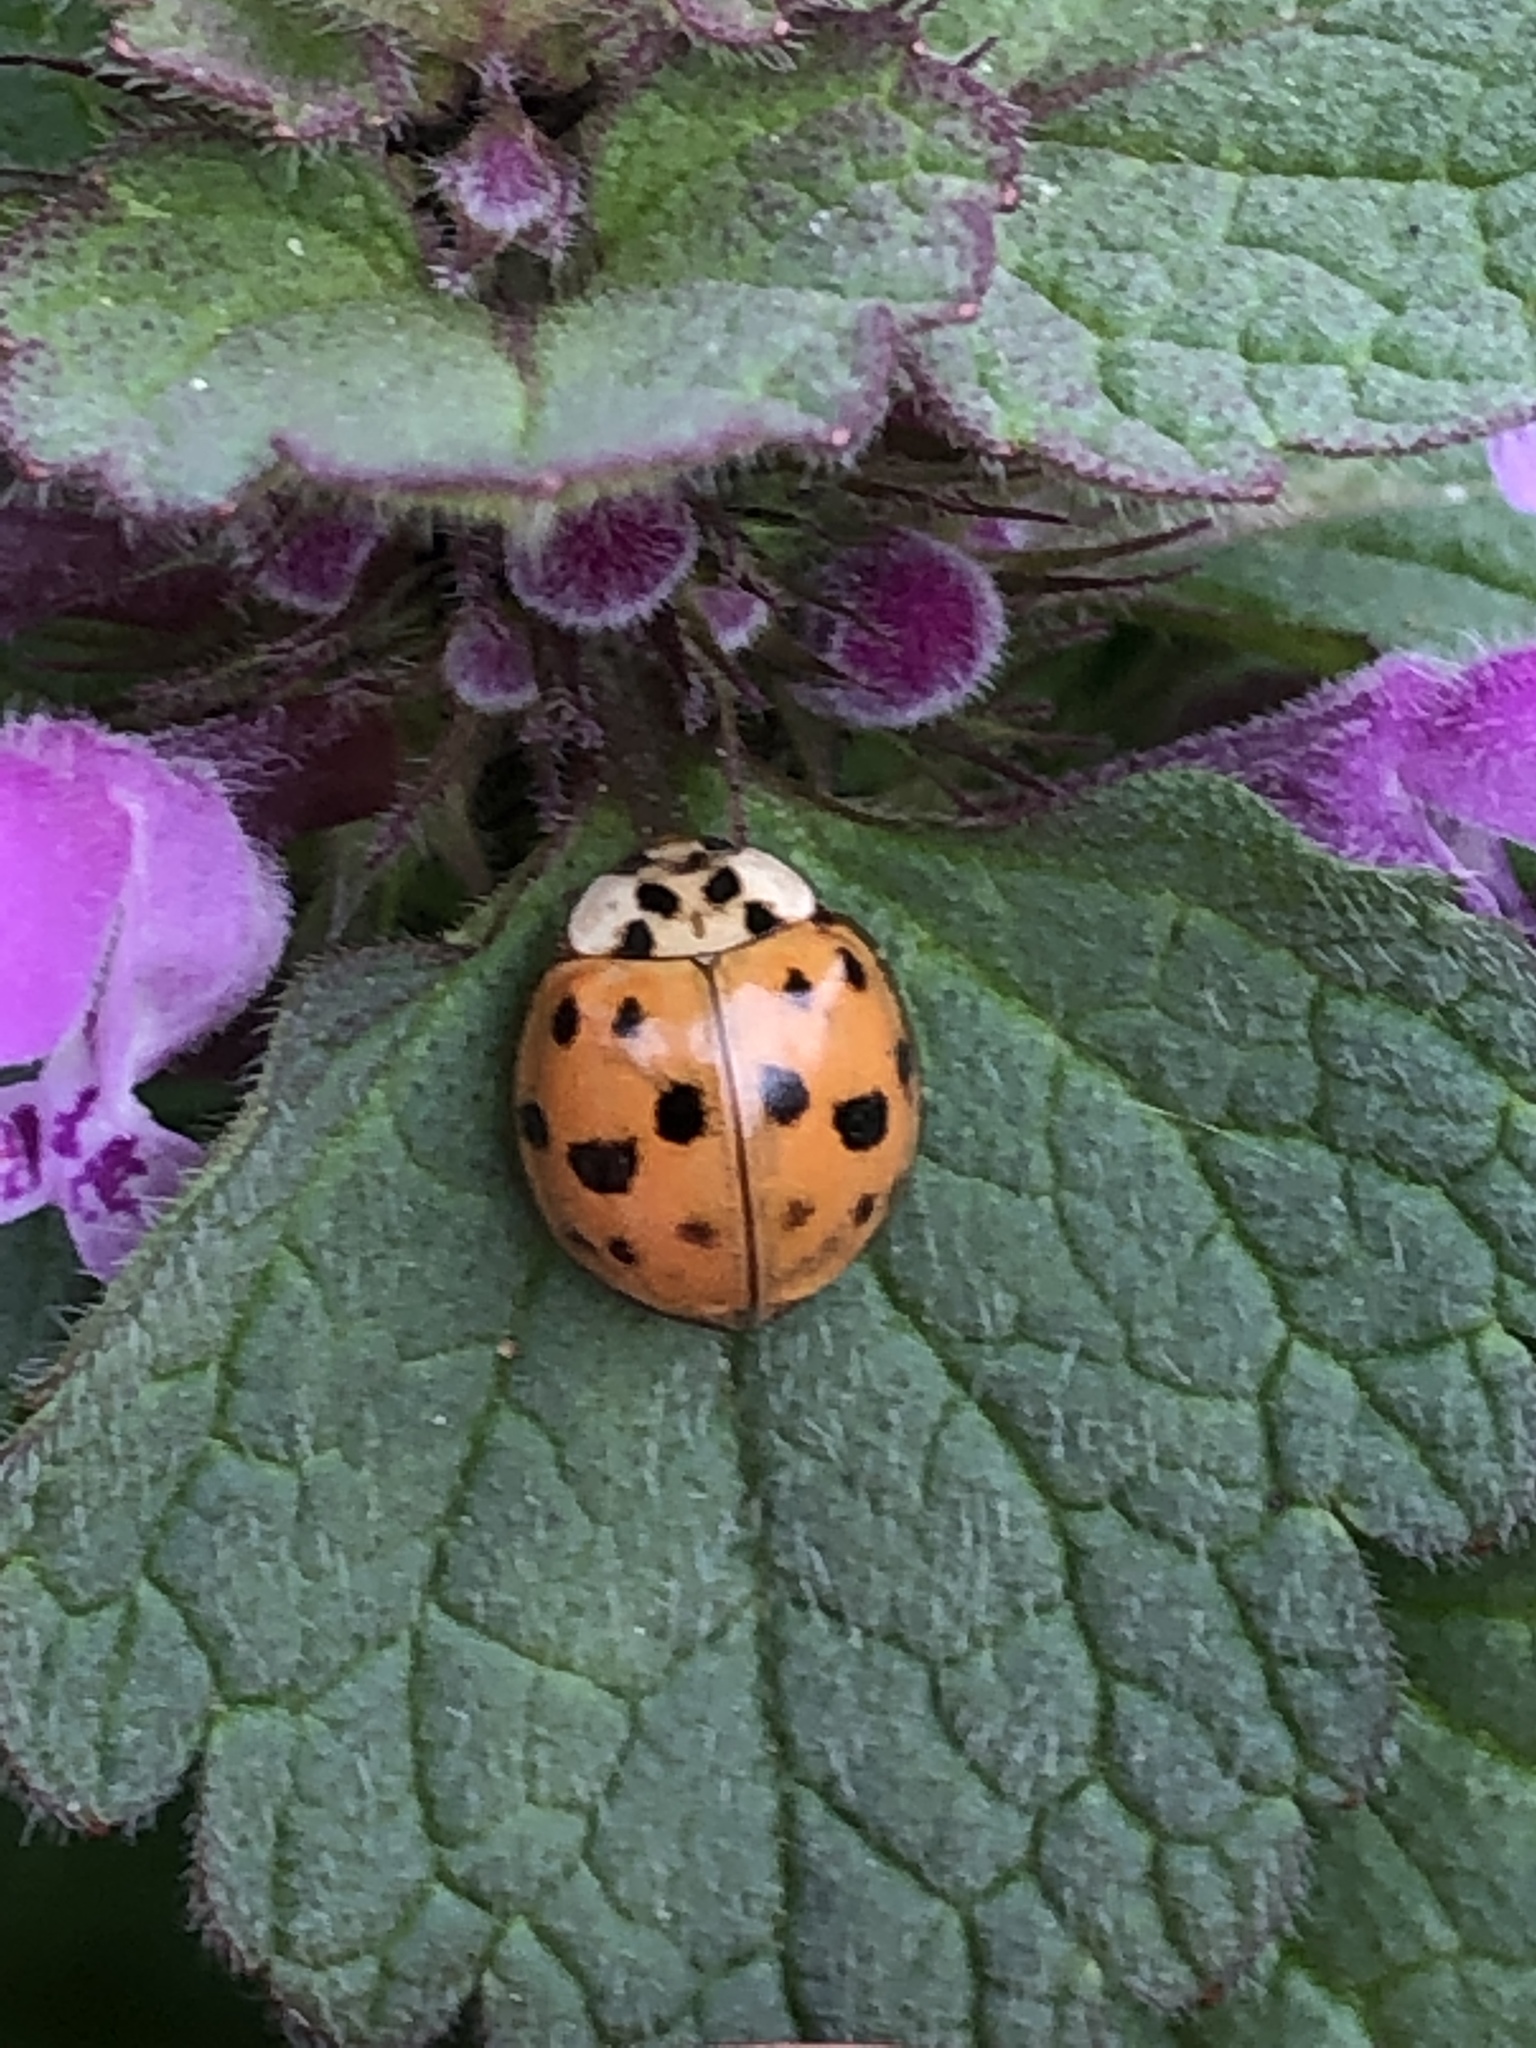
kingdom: Animalia
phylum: Arthropoda
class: Insecta
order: Coleoptera
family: Coccinellidae
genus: Harmonia
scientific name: Harmonia axyridis
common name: Harlequin ladybird
